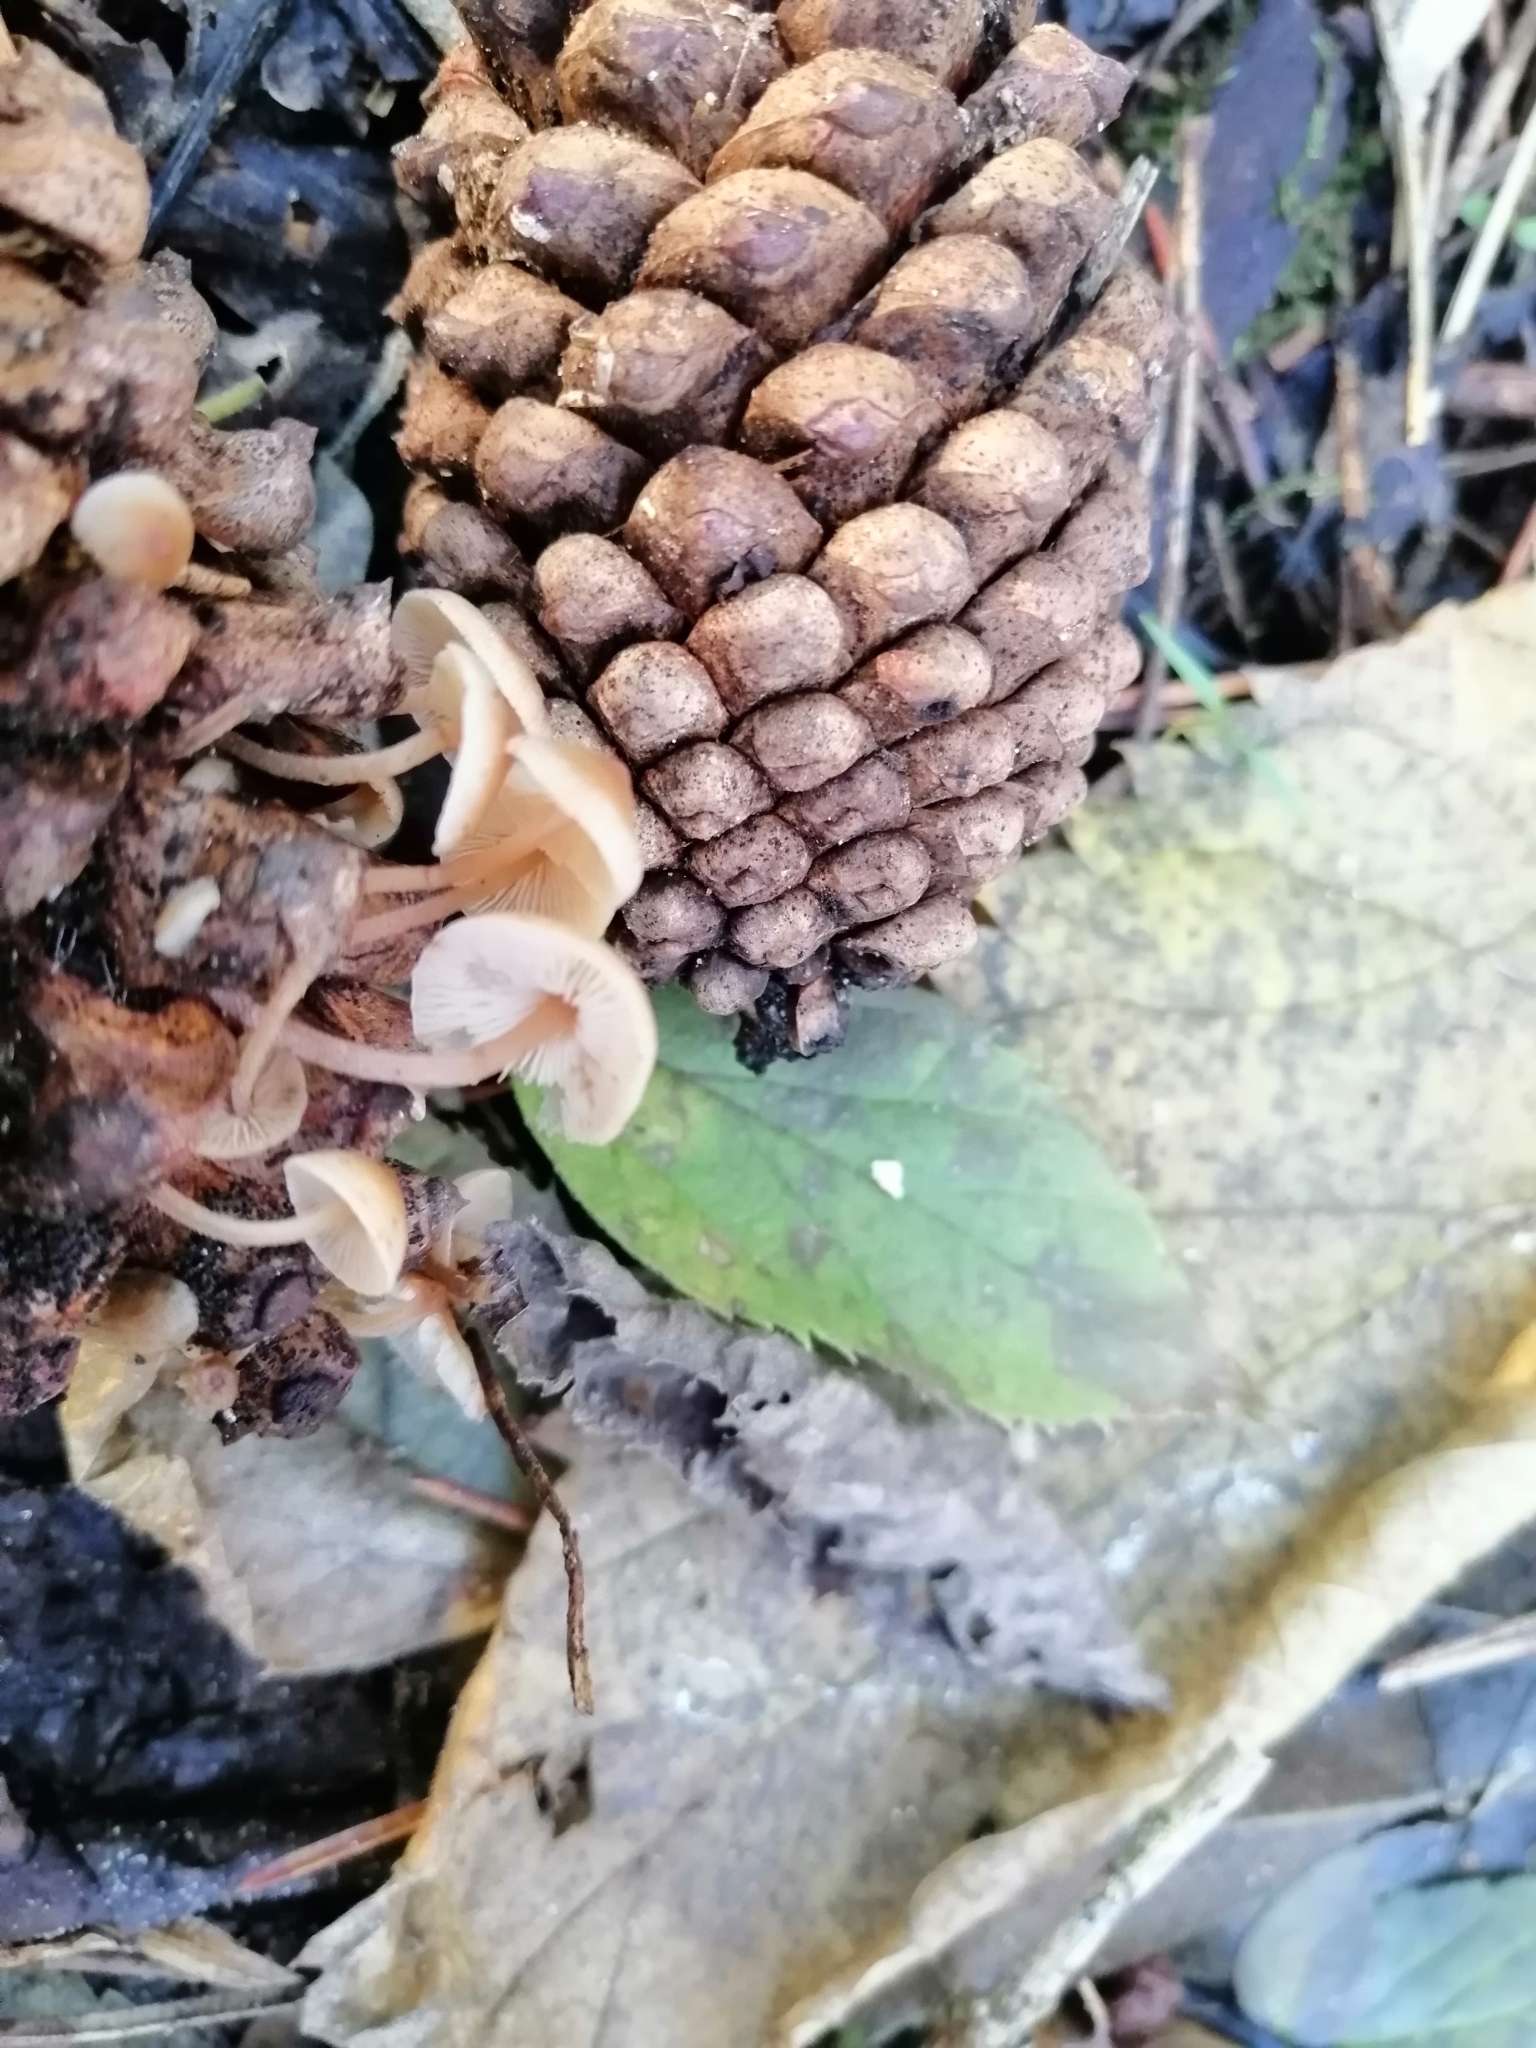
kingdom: Fungi
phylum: Basidiomycota
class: Agaricomycetes
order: Agaricales
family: Marasmiaceae
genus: Baeospora
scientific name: Baeospora myosura
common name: Conifercone cap
